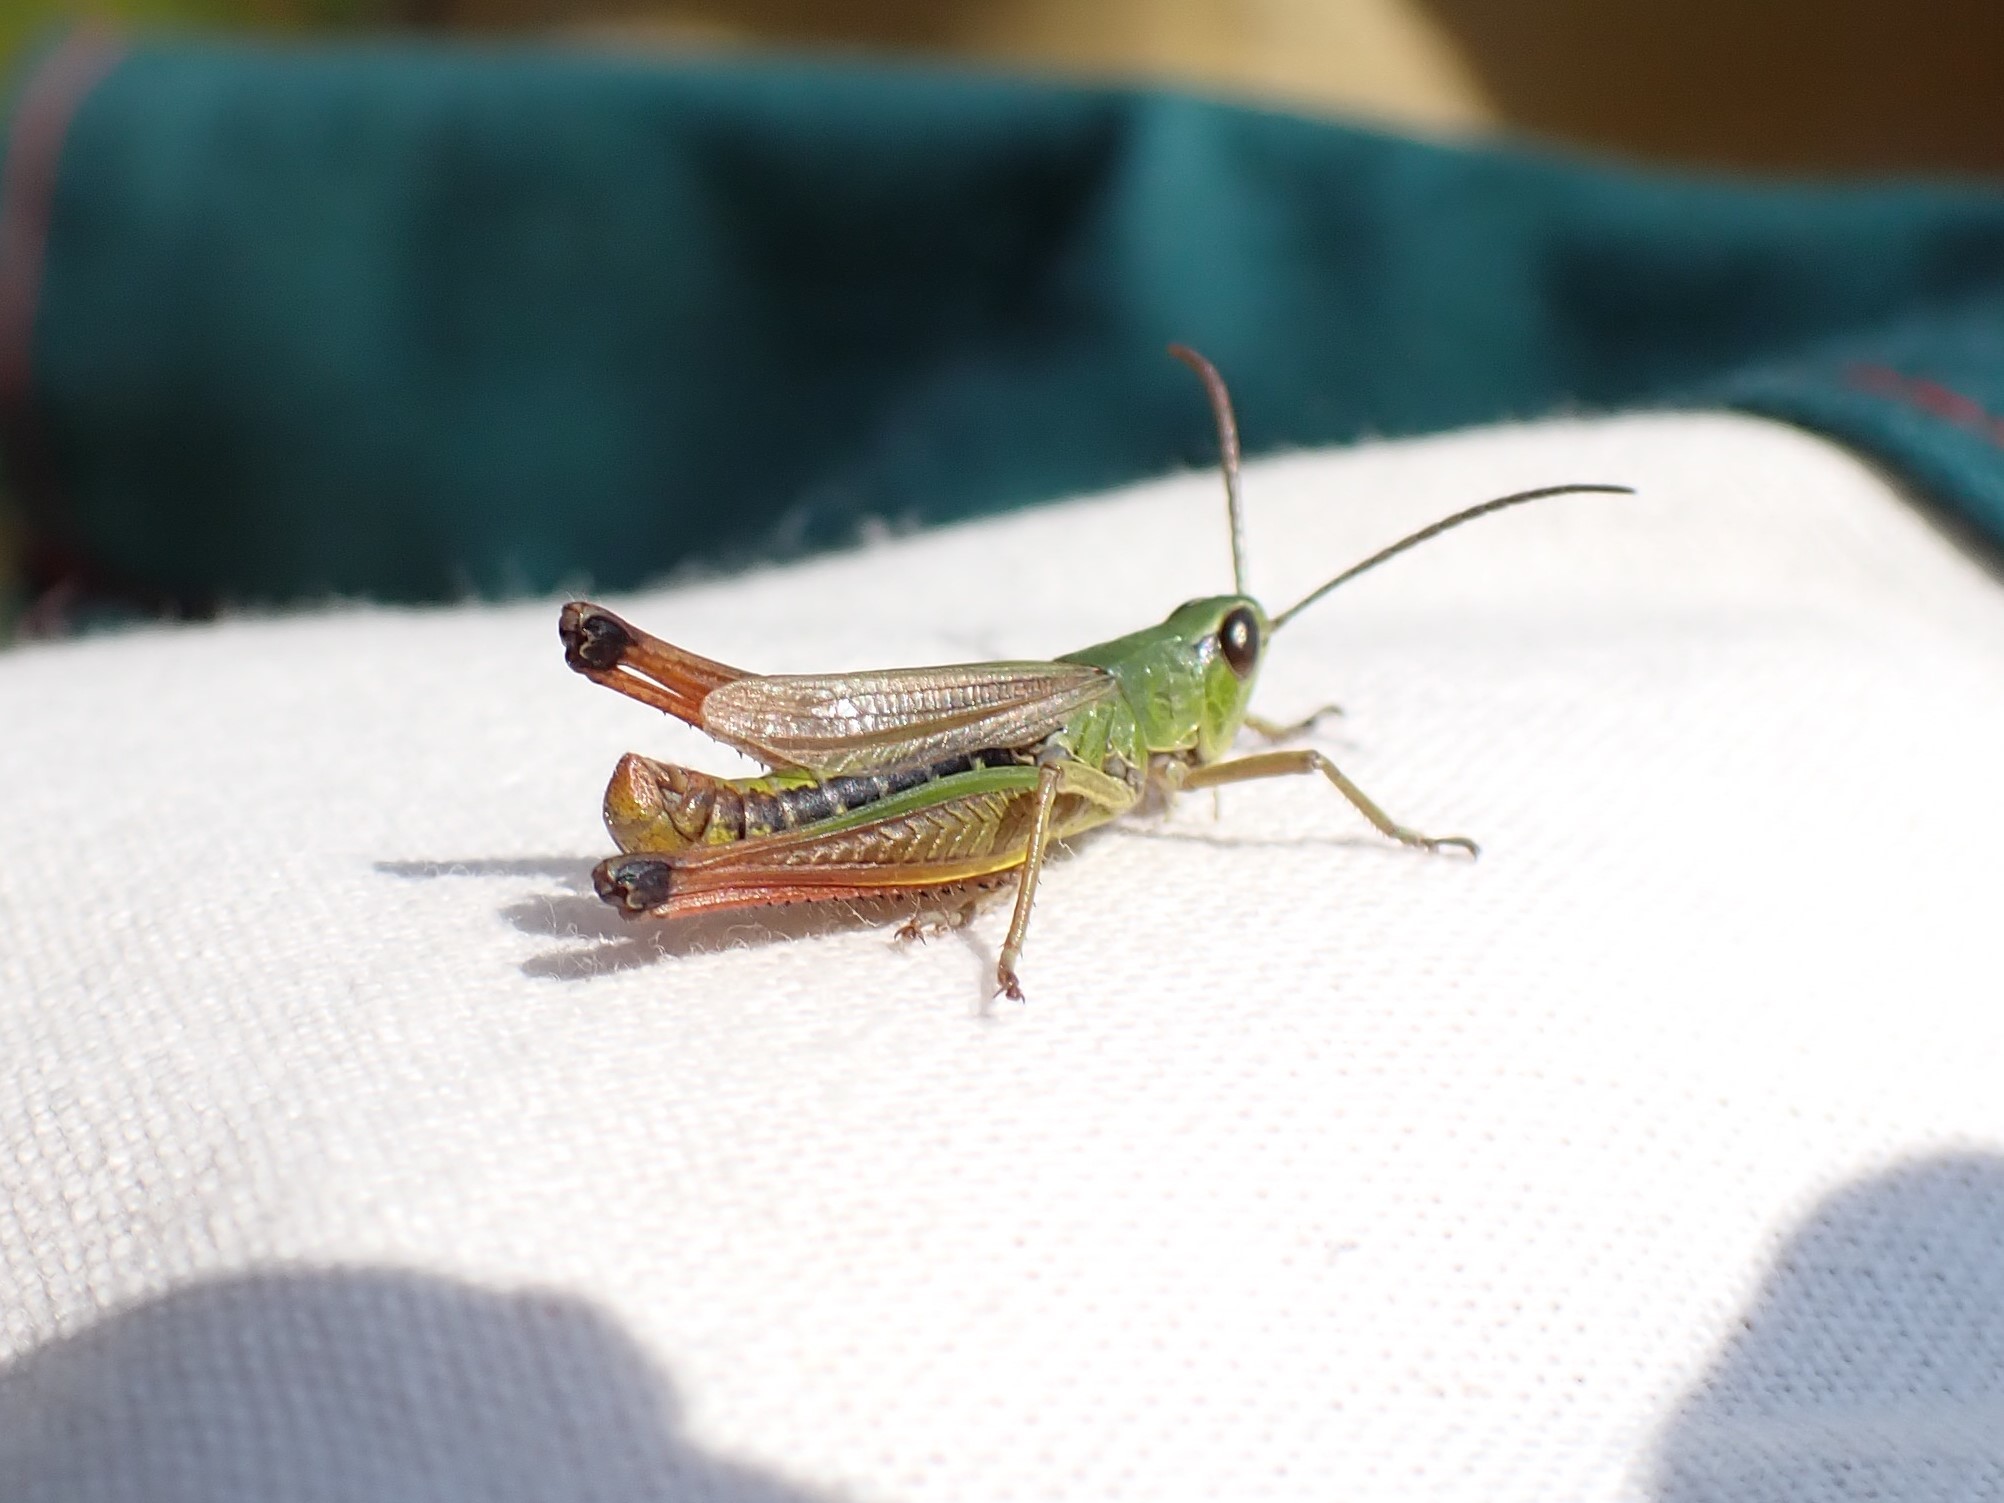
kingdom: Animalia
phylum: Arthropoda
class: Insecta
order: Orthoptera
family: Acrididae
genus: Pseudochorthippus
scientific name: Pseudochorthippus parallelus
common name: Meadow grasshopper
